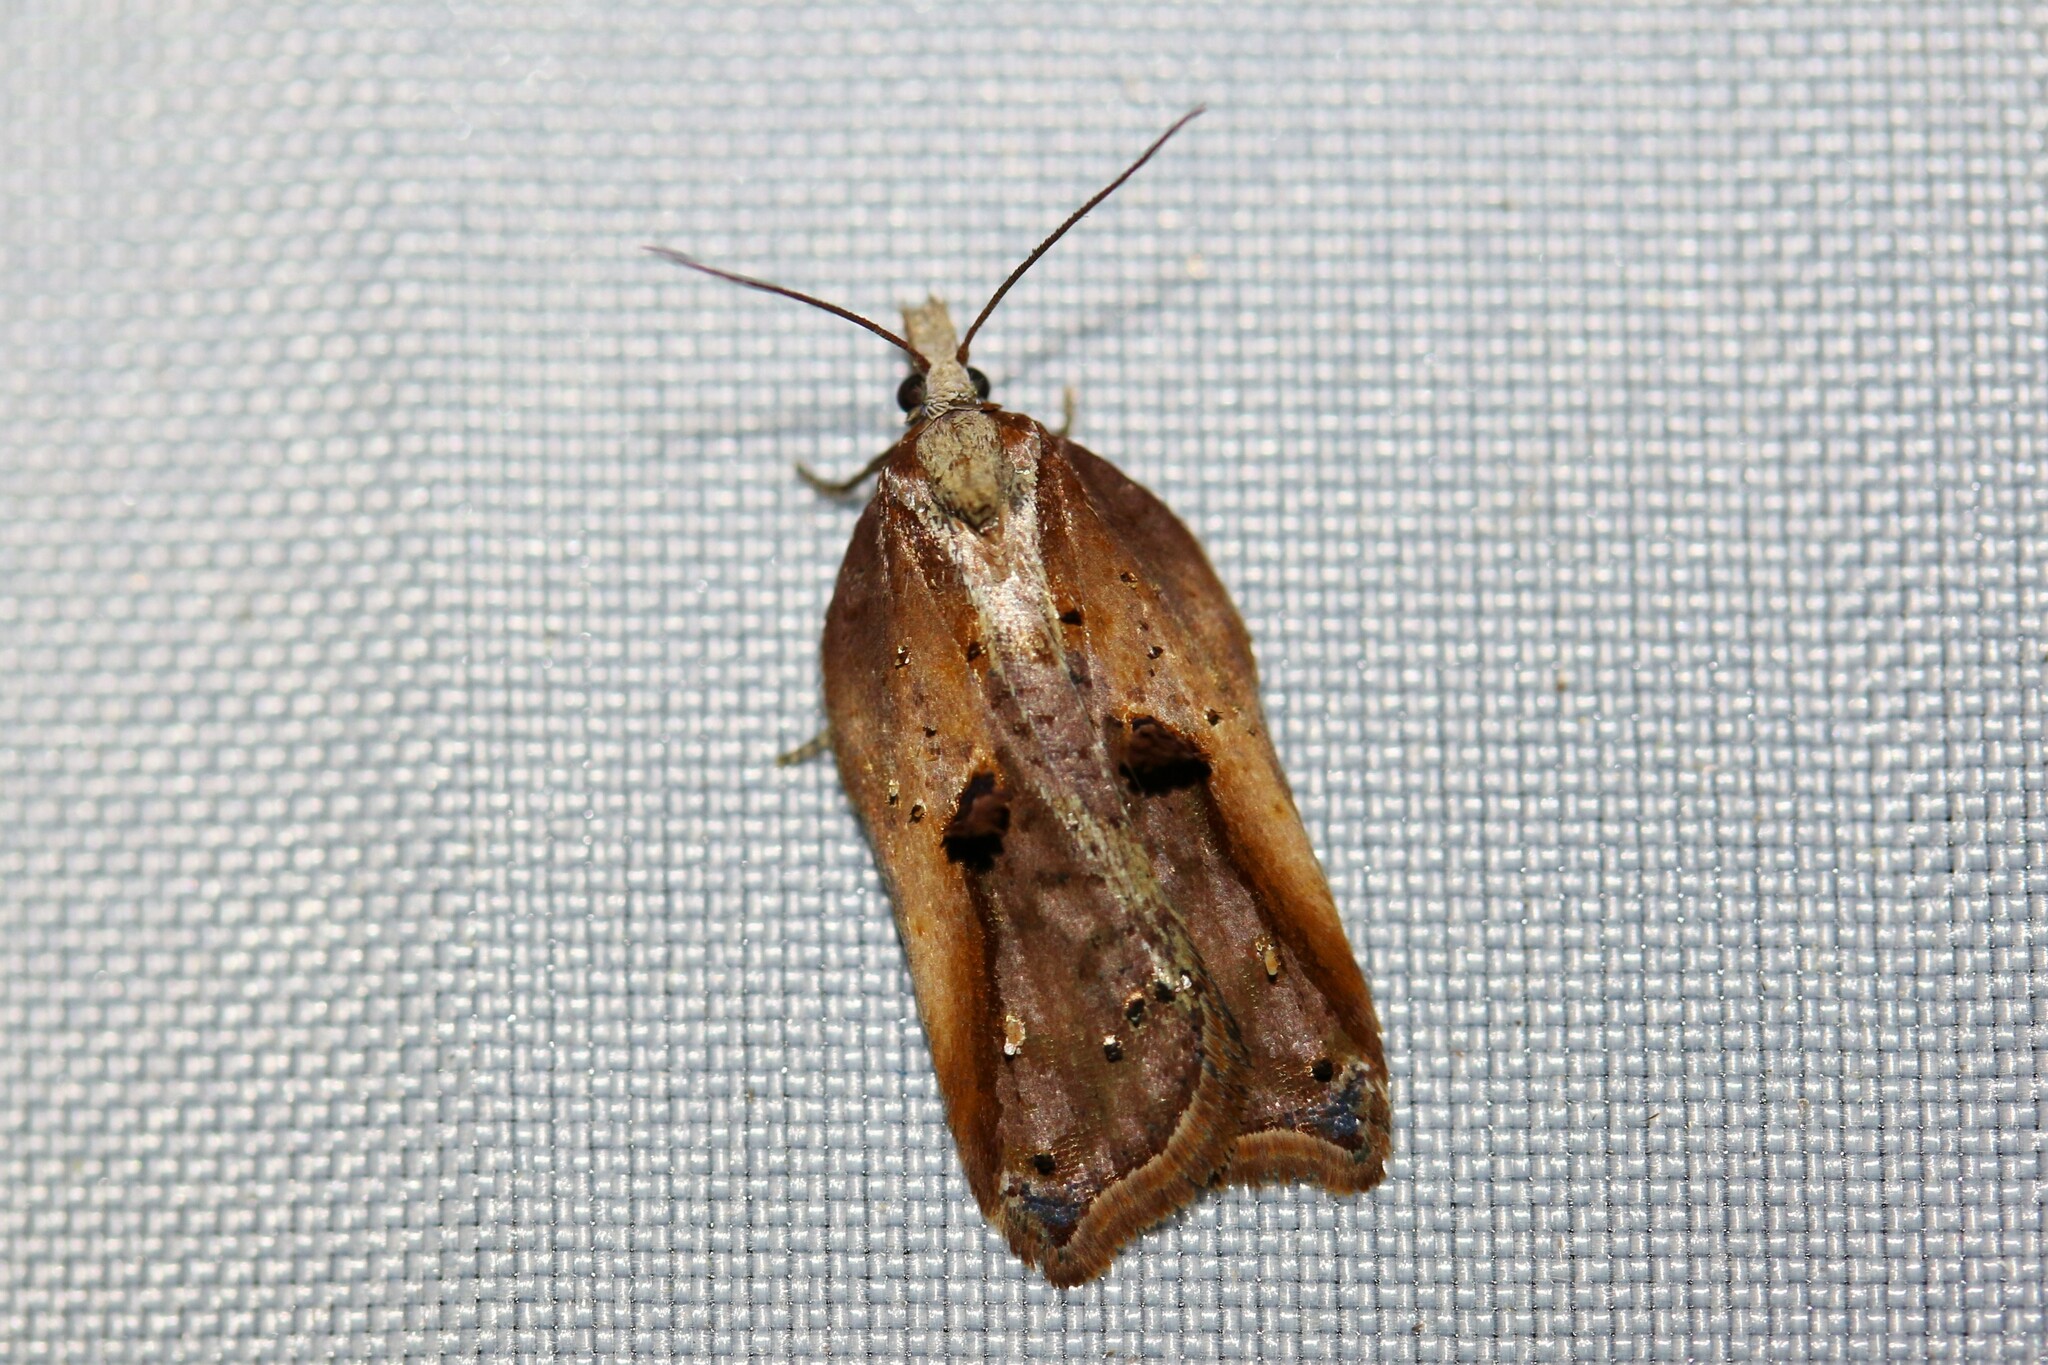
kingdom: Animalia
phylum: Arthropoda
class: Insecta
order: Lepidoptera
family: Tortricidae
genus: Acleris
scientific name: Acleris cristana
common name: Tufted button
